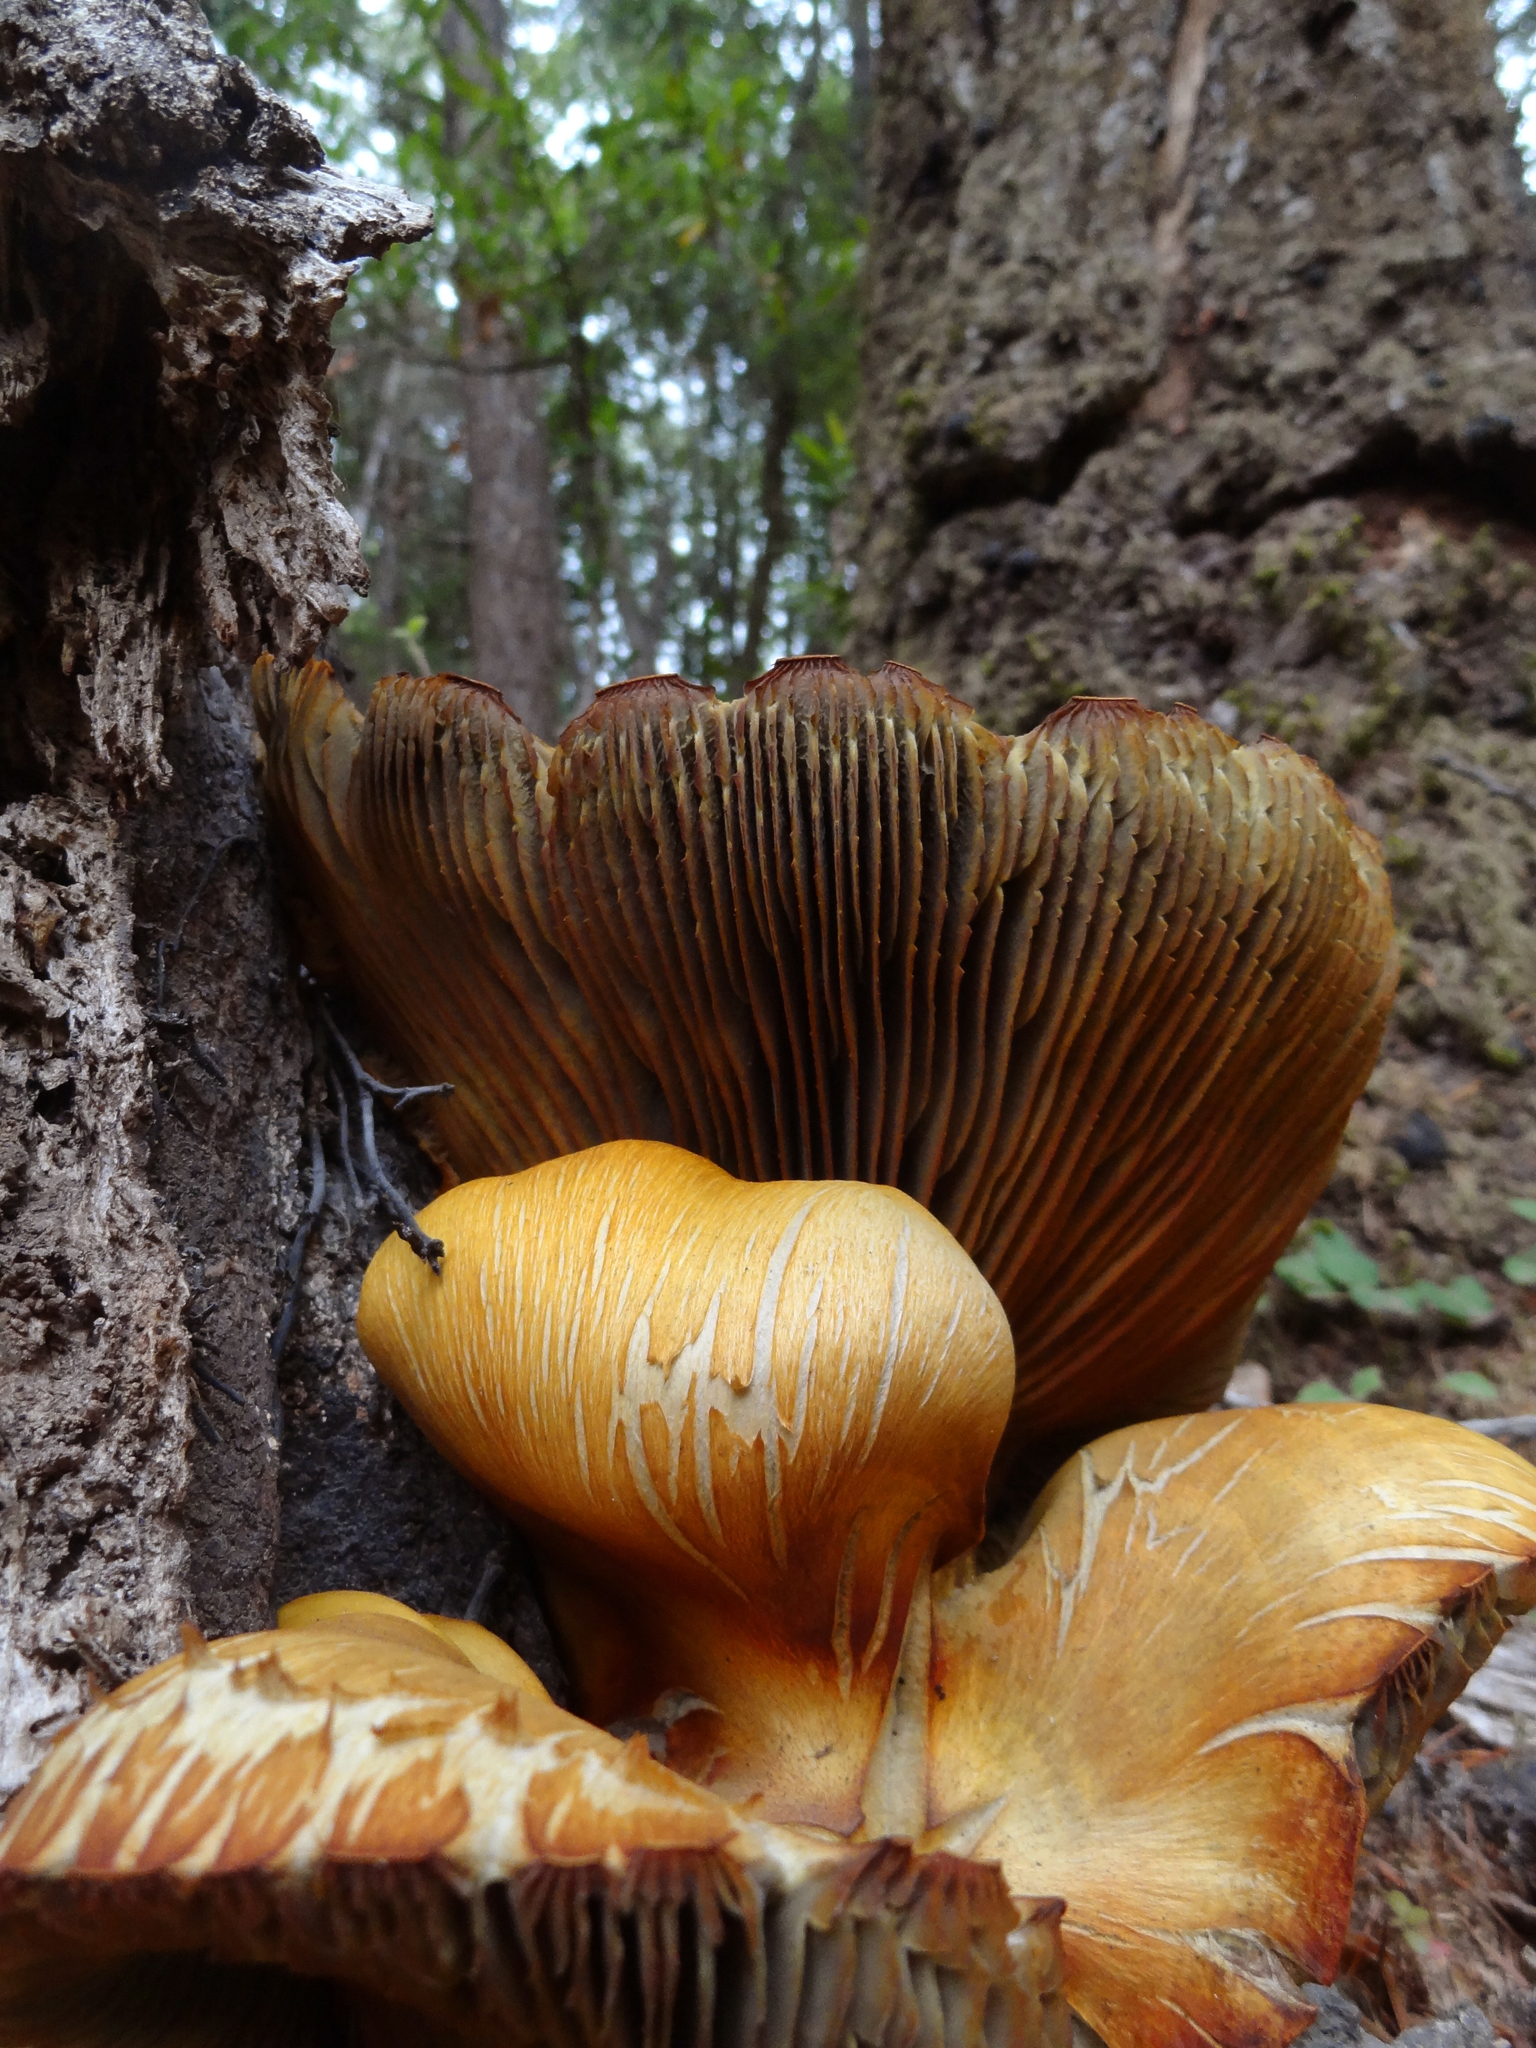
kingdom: Fungi
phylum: Basidiomycota
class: Agaricomycetes
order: Agaricales
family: Omphalotaceae
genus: Omphalotus
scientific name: Omphalotus olivascens
